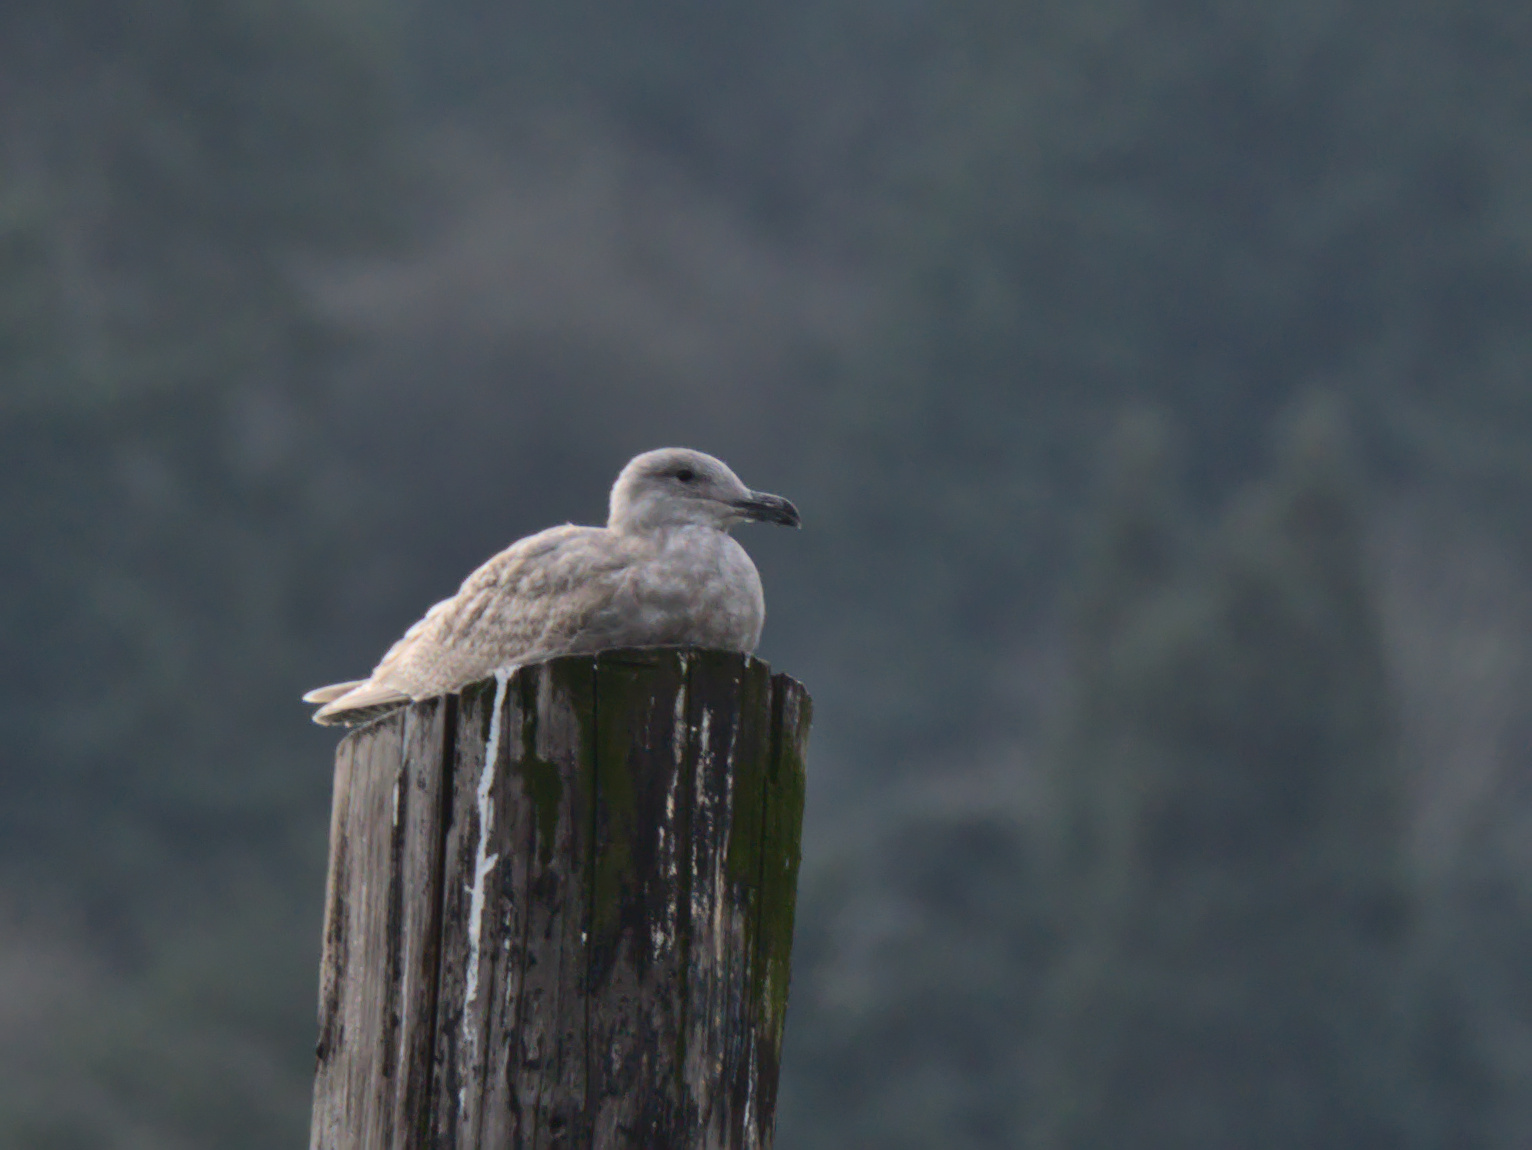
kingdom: Animalia
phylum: Chordata
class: Aves
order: Charadriiformes
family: Laridae
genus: Larus
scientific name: Larus glaucescens
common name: Glaucous-winged gull
